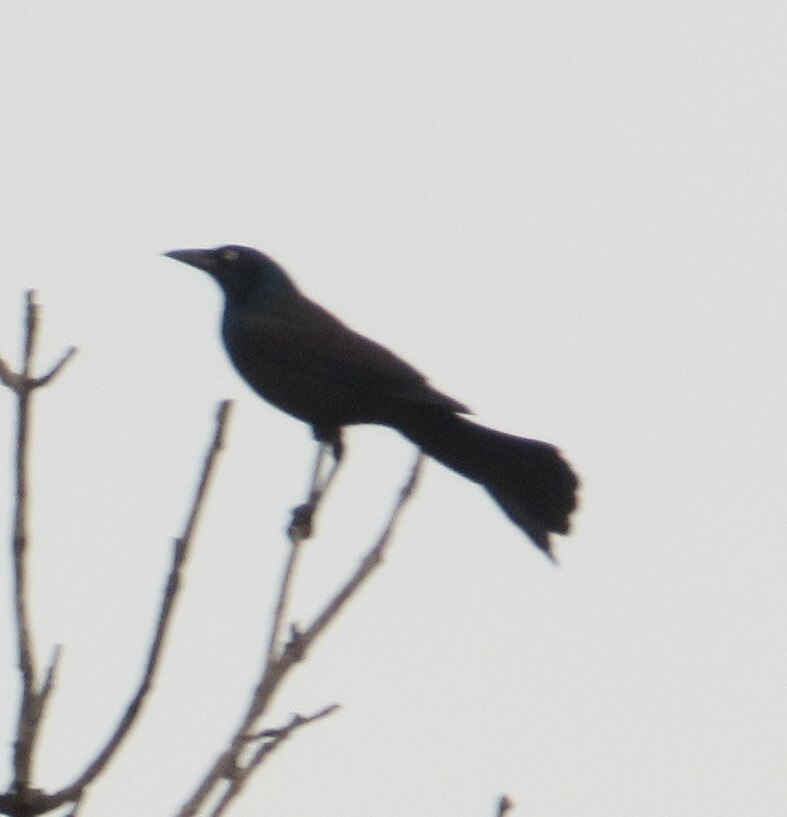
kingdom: Animalia
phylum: Chordata
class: Aves
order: Passeriformes
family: Icteridae
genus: Quiscalus
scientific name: Quiscalus mexicanus
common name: Great-tailed grackle
